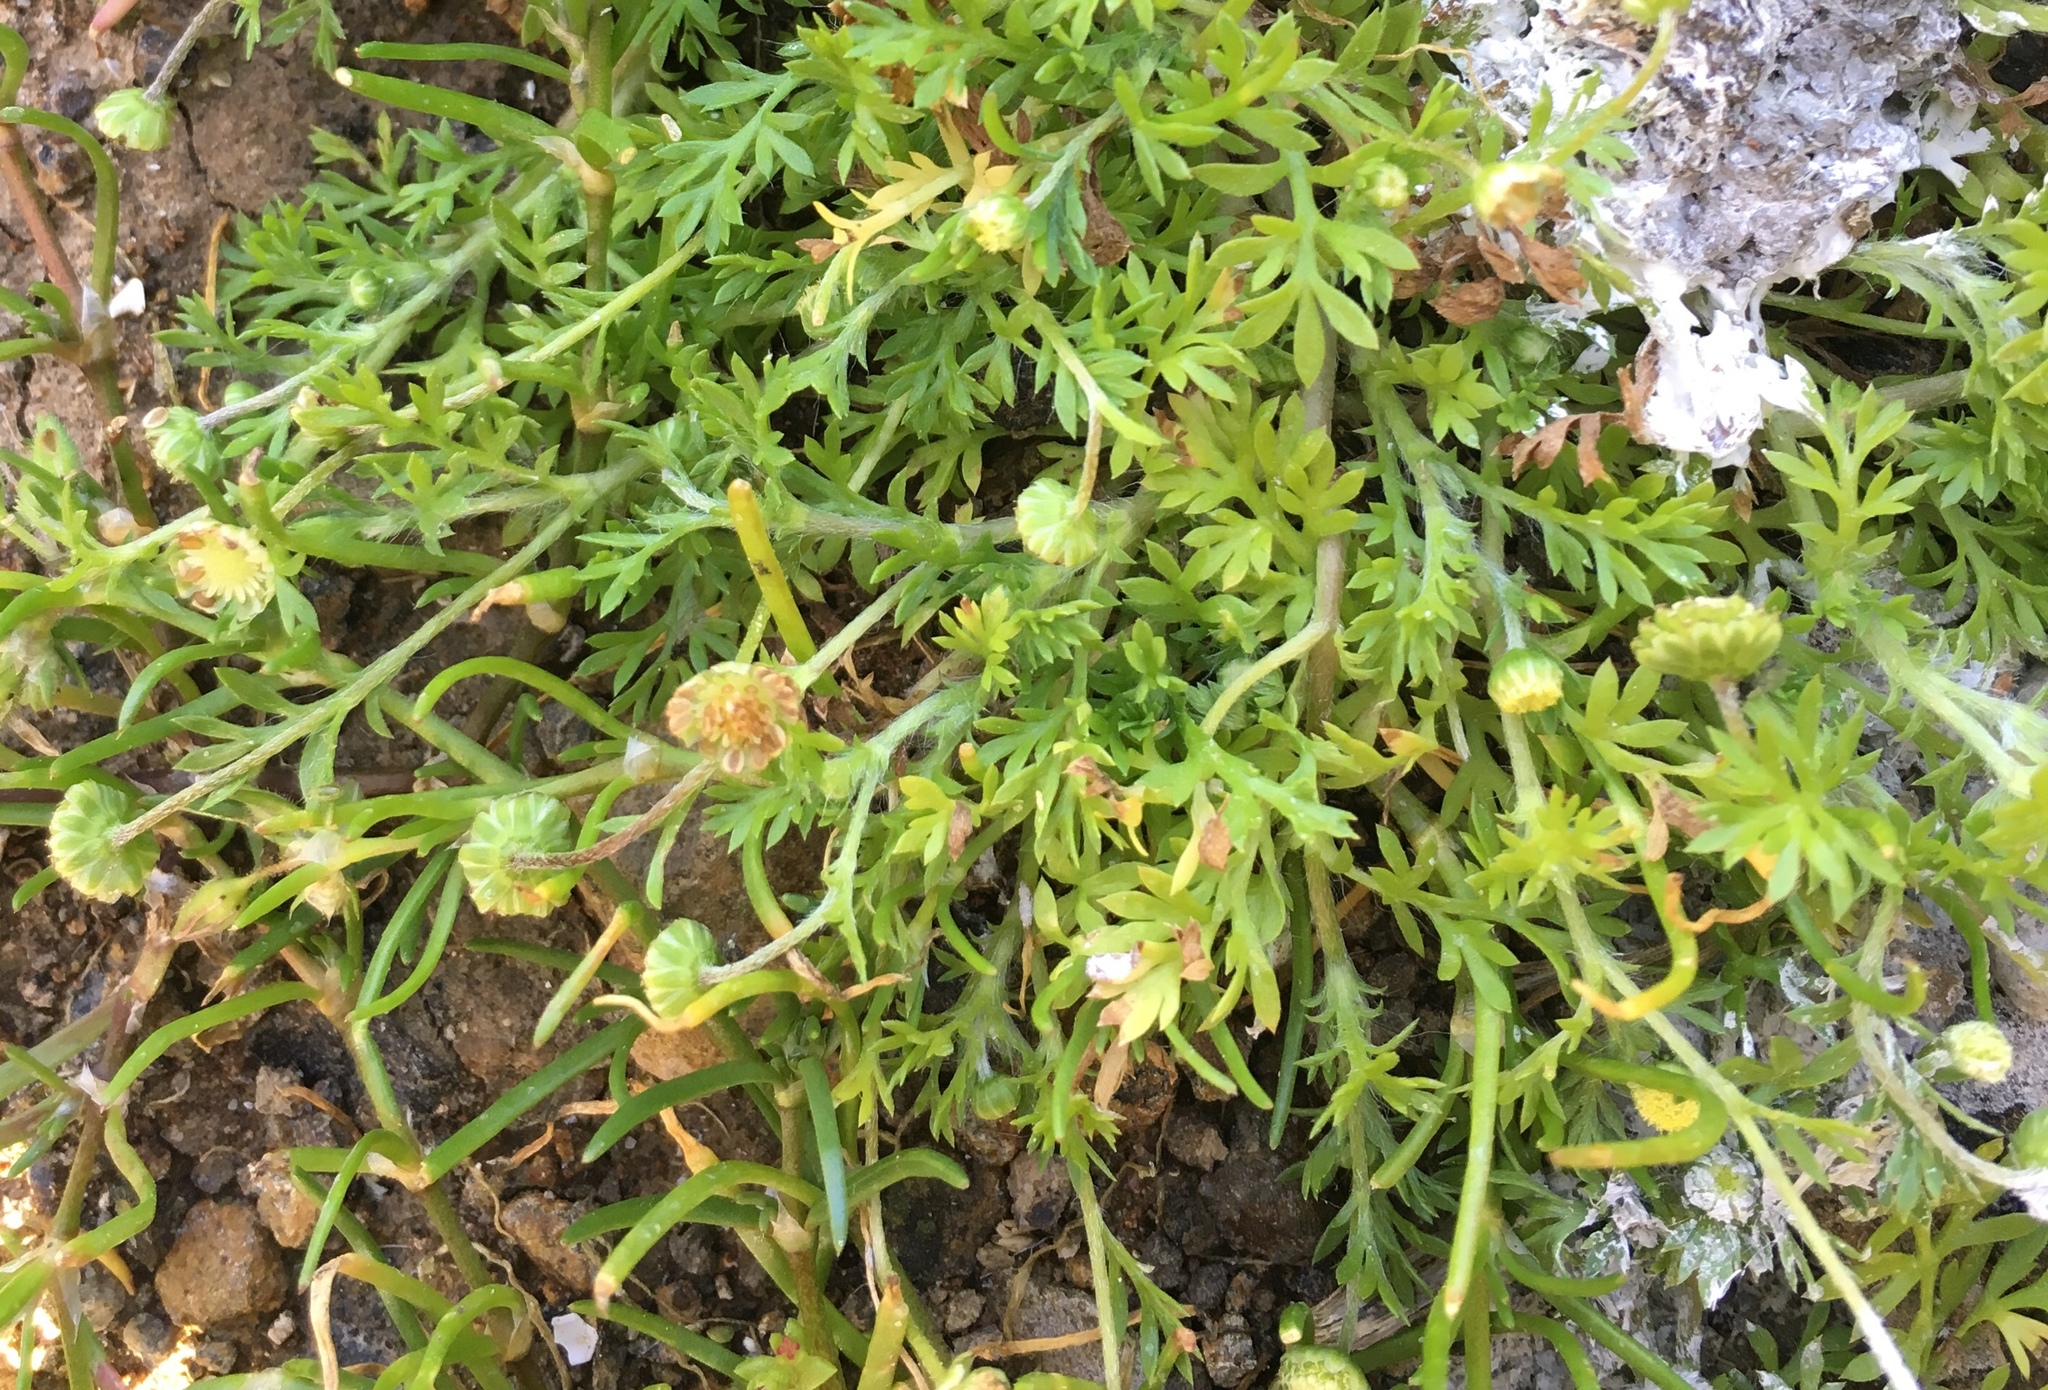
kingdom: Plantae
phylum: Tracheophyta
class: Magnoliopsida
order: Asterales
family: Asteraceae
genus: Cotula
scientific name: Cotula australis
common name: Australian waterbuttons
